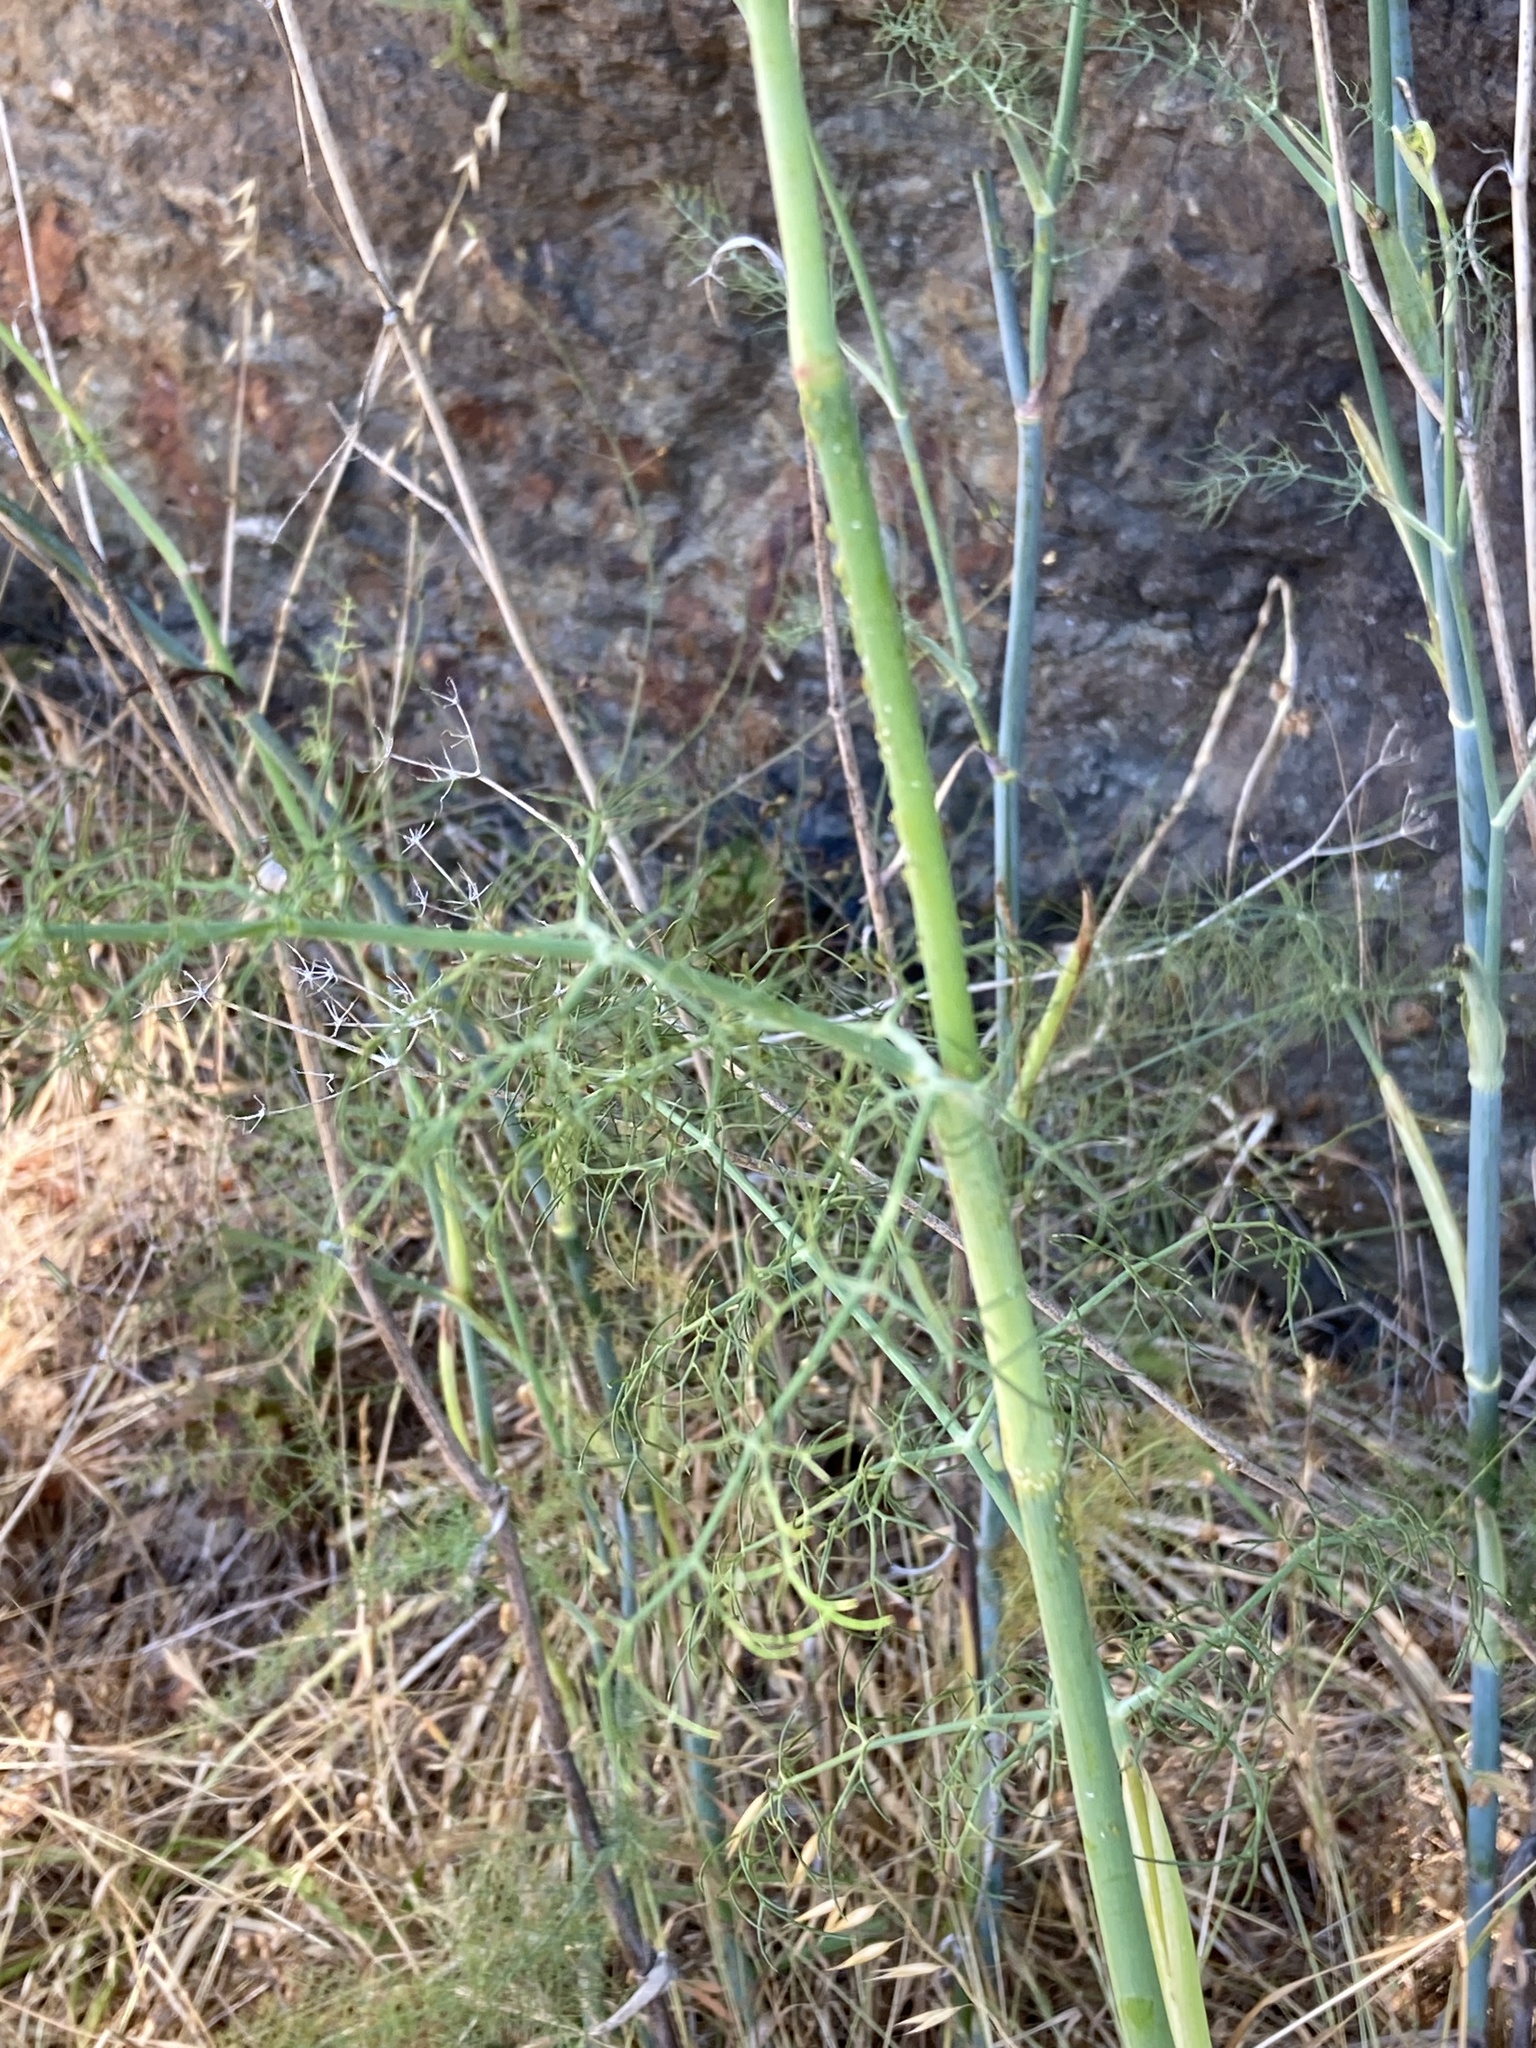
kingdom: Plantae
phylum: Tracheophyta
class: Magnoliopsida
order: Apiales
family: Apiaceae
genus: Foeniculum
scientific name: Foeniculum vulgare
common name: Fennel
